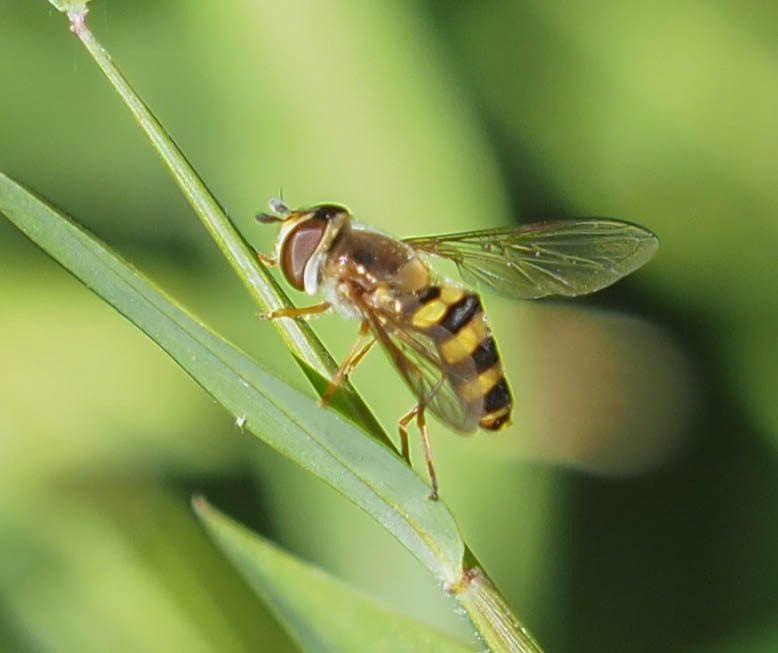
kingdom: Animalia
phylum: Arthropoda
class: Insecta
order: Diptera
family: Syrphidae
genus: Eupeodes
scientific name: Eupeodes
